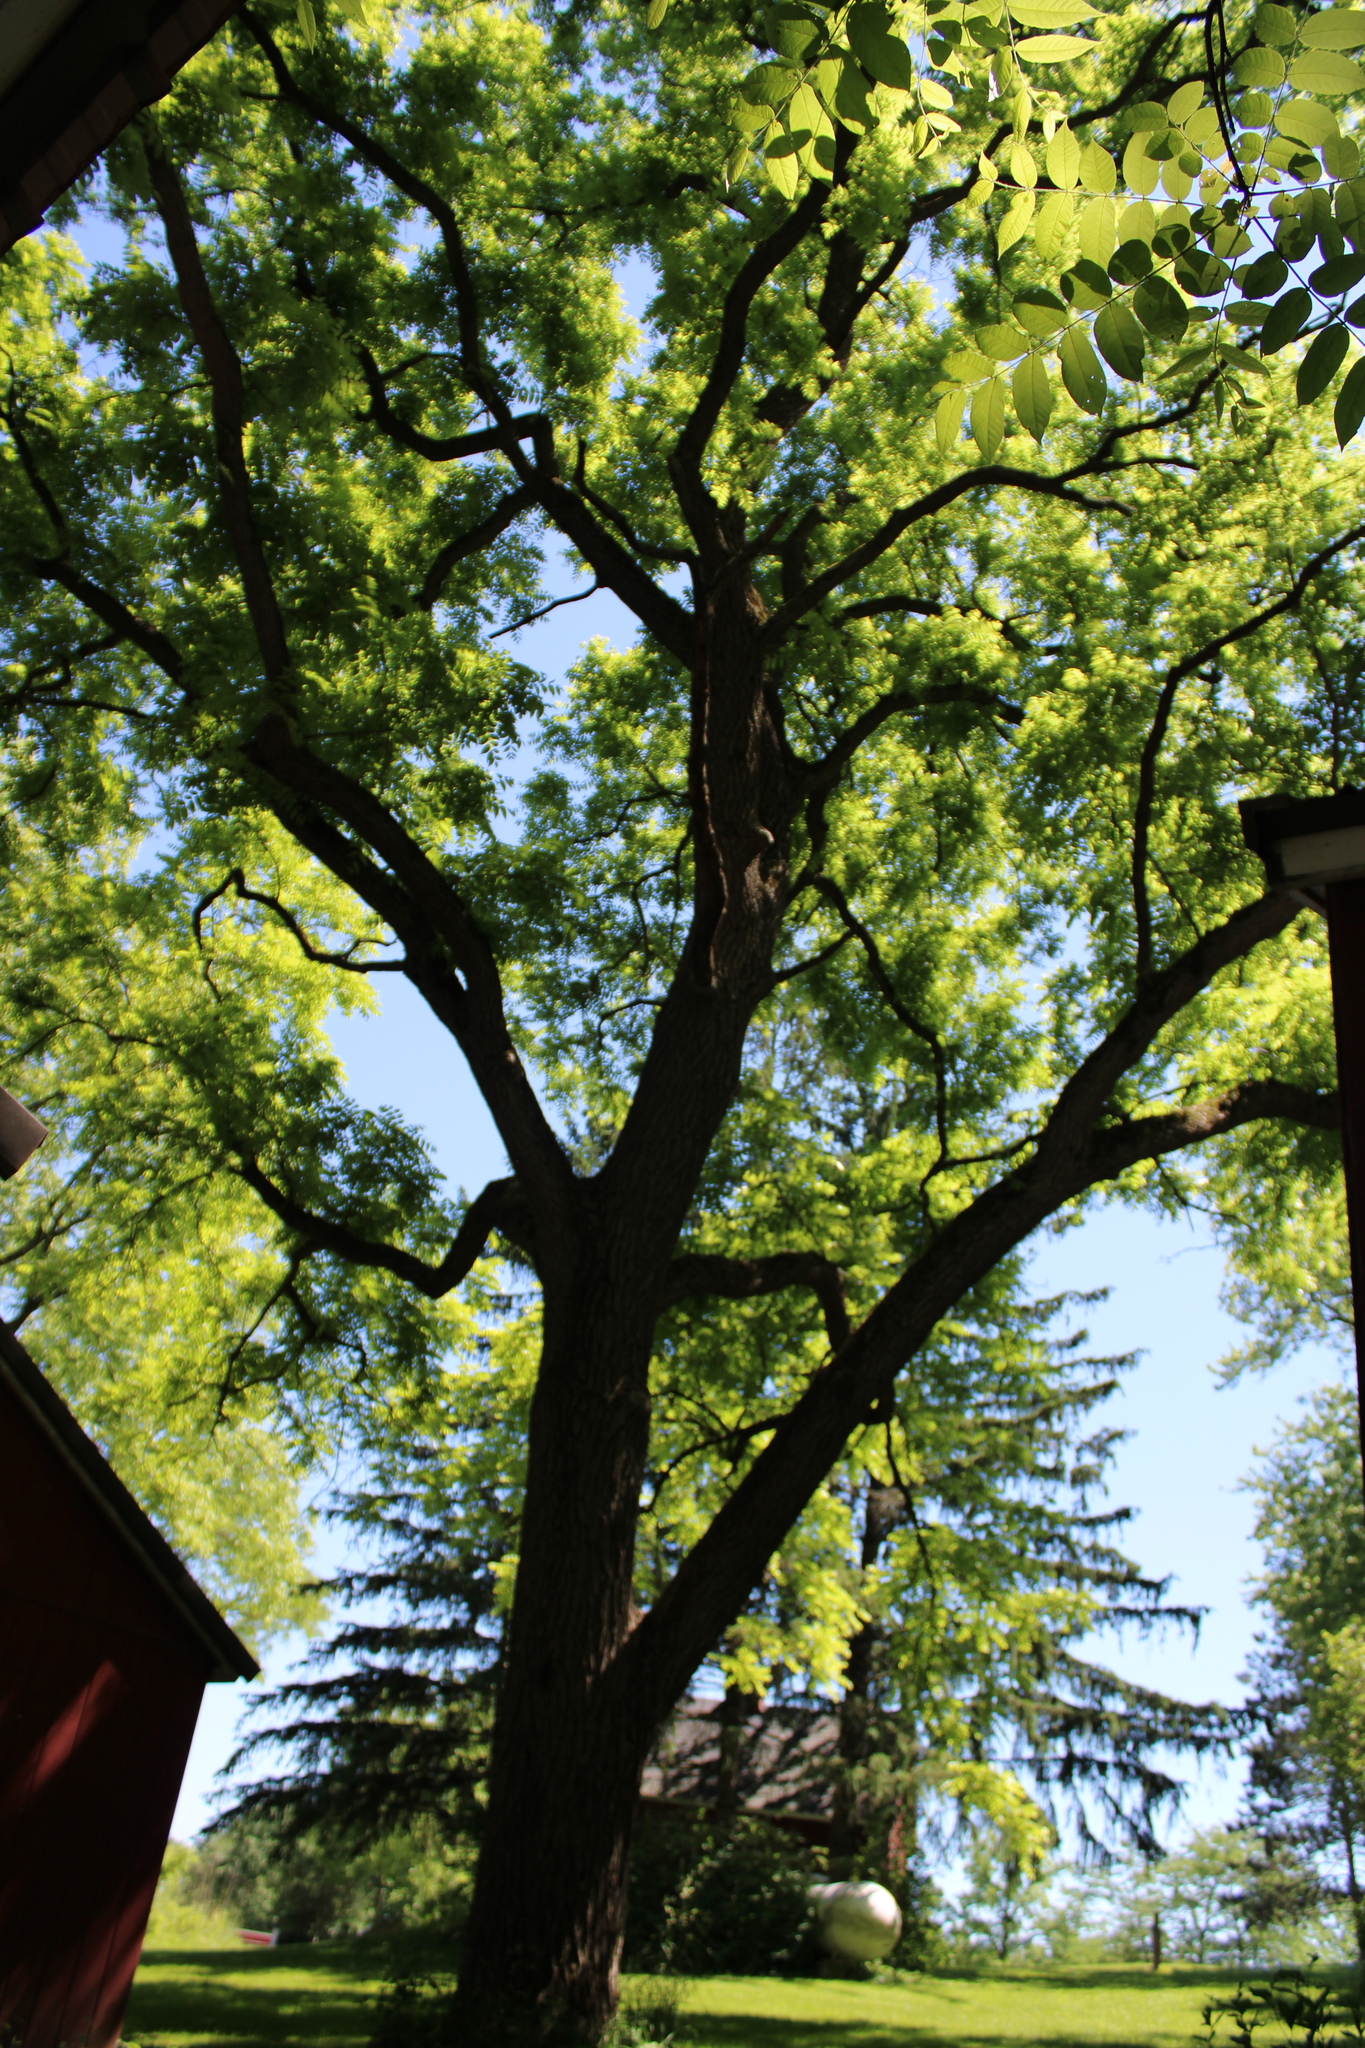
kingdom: Plantae
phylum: Tracheophyta
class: Magnoliopsida
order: Fagales
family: Juglandaceae
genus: Juglans
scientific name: Juglans nigra
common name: Black walnut
